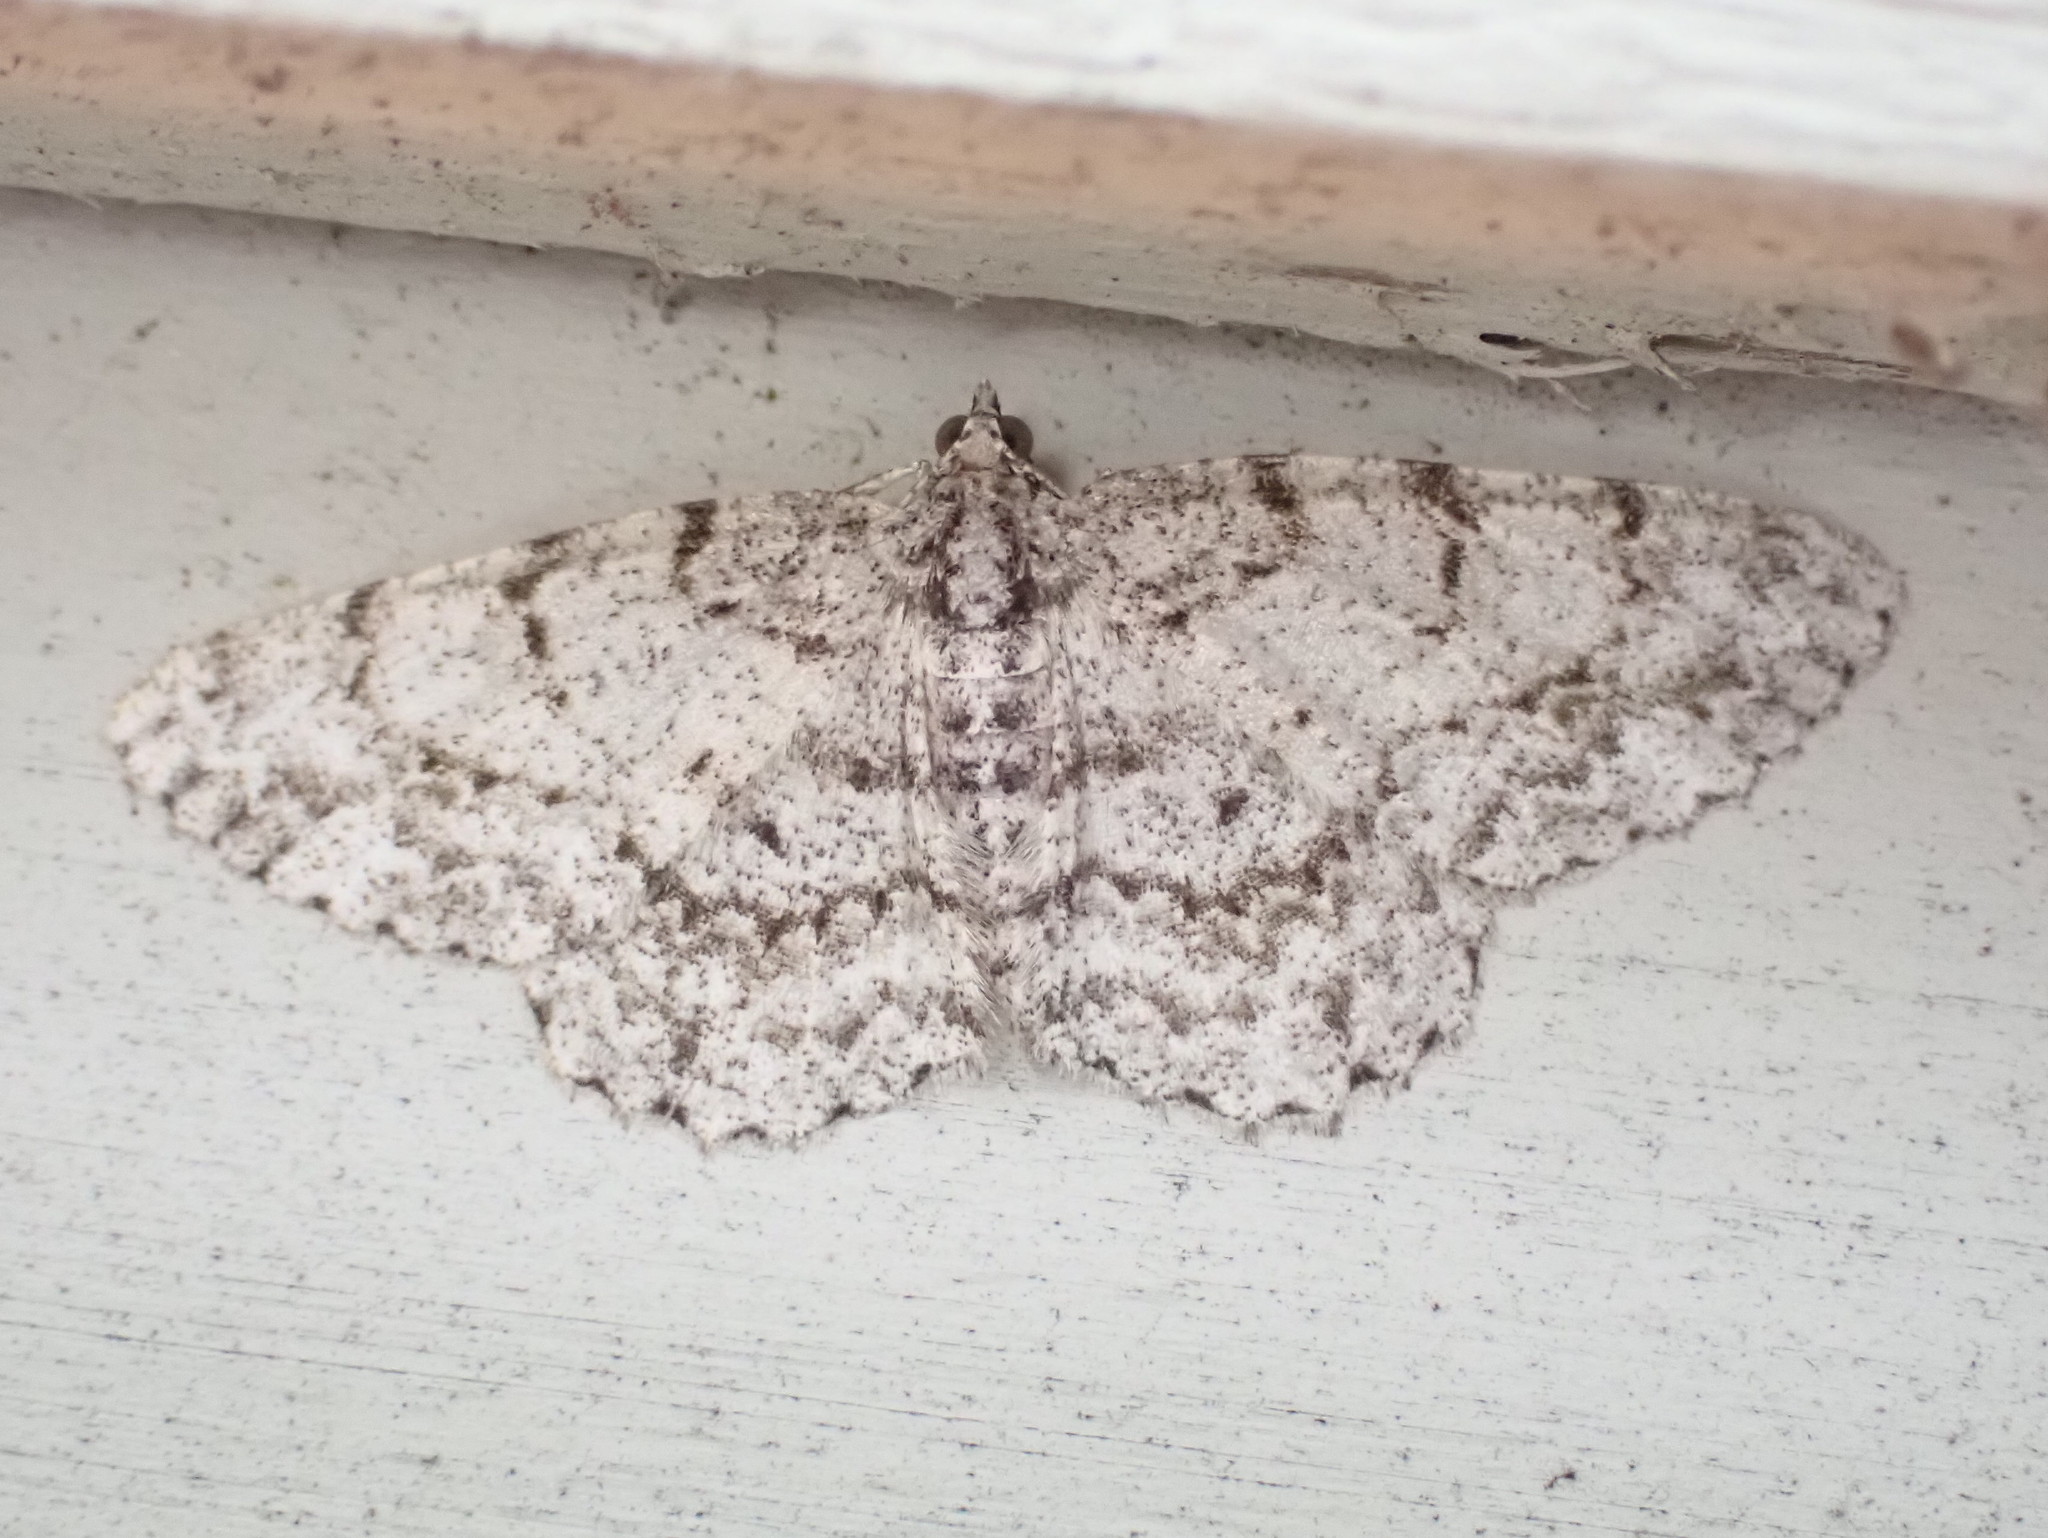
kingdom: Animalia
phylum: Arthropoda
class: Insecta
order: Lepidoptera
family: Geometridae
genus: Protoboarmia
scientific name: Protoboarmia porcelaria
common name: Porcelain gray
